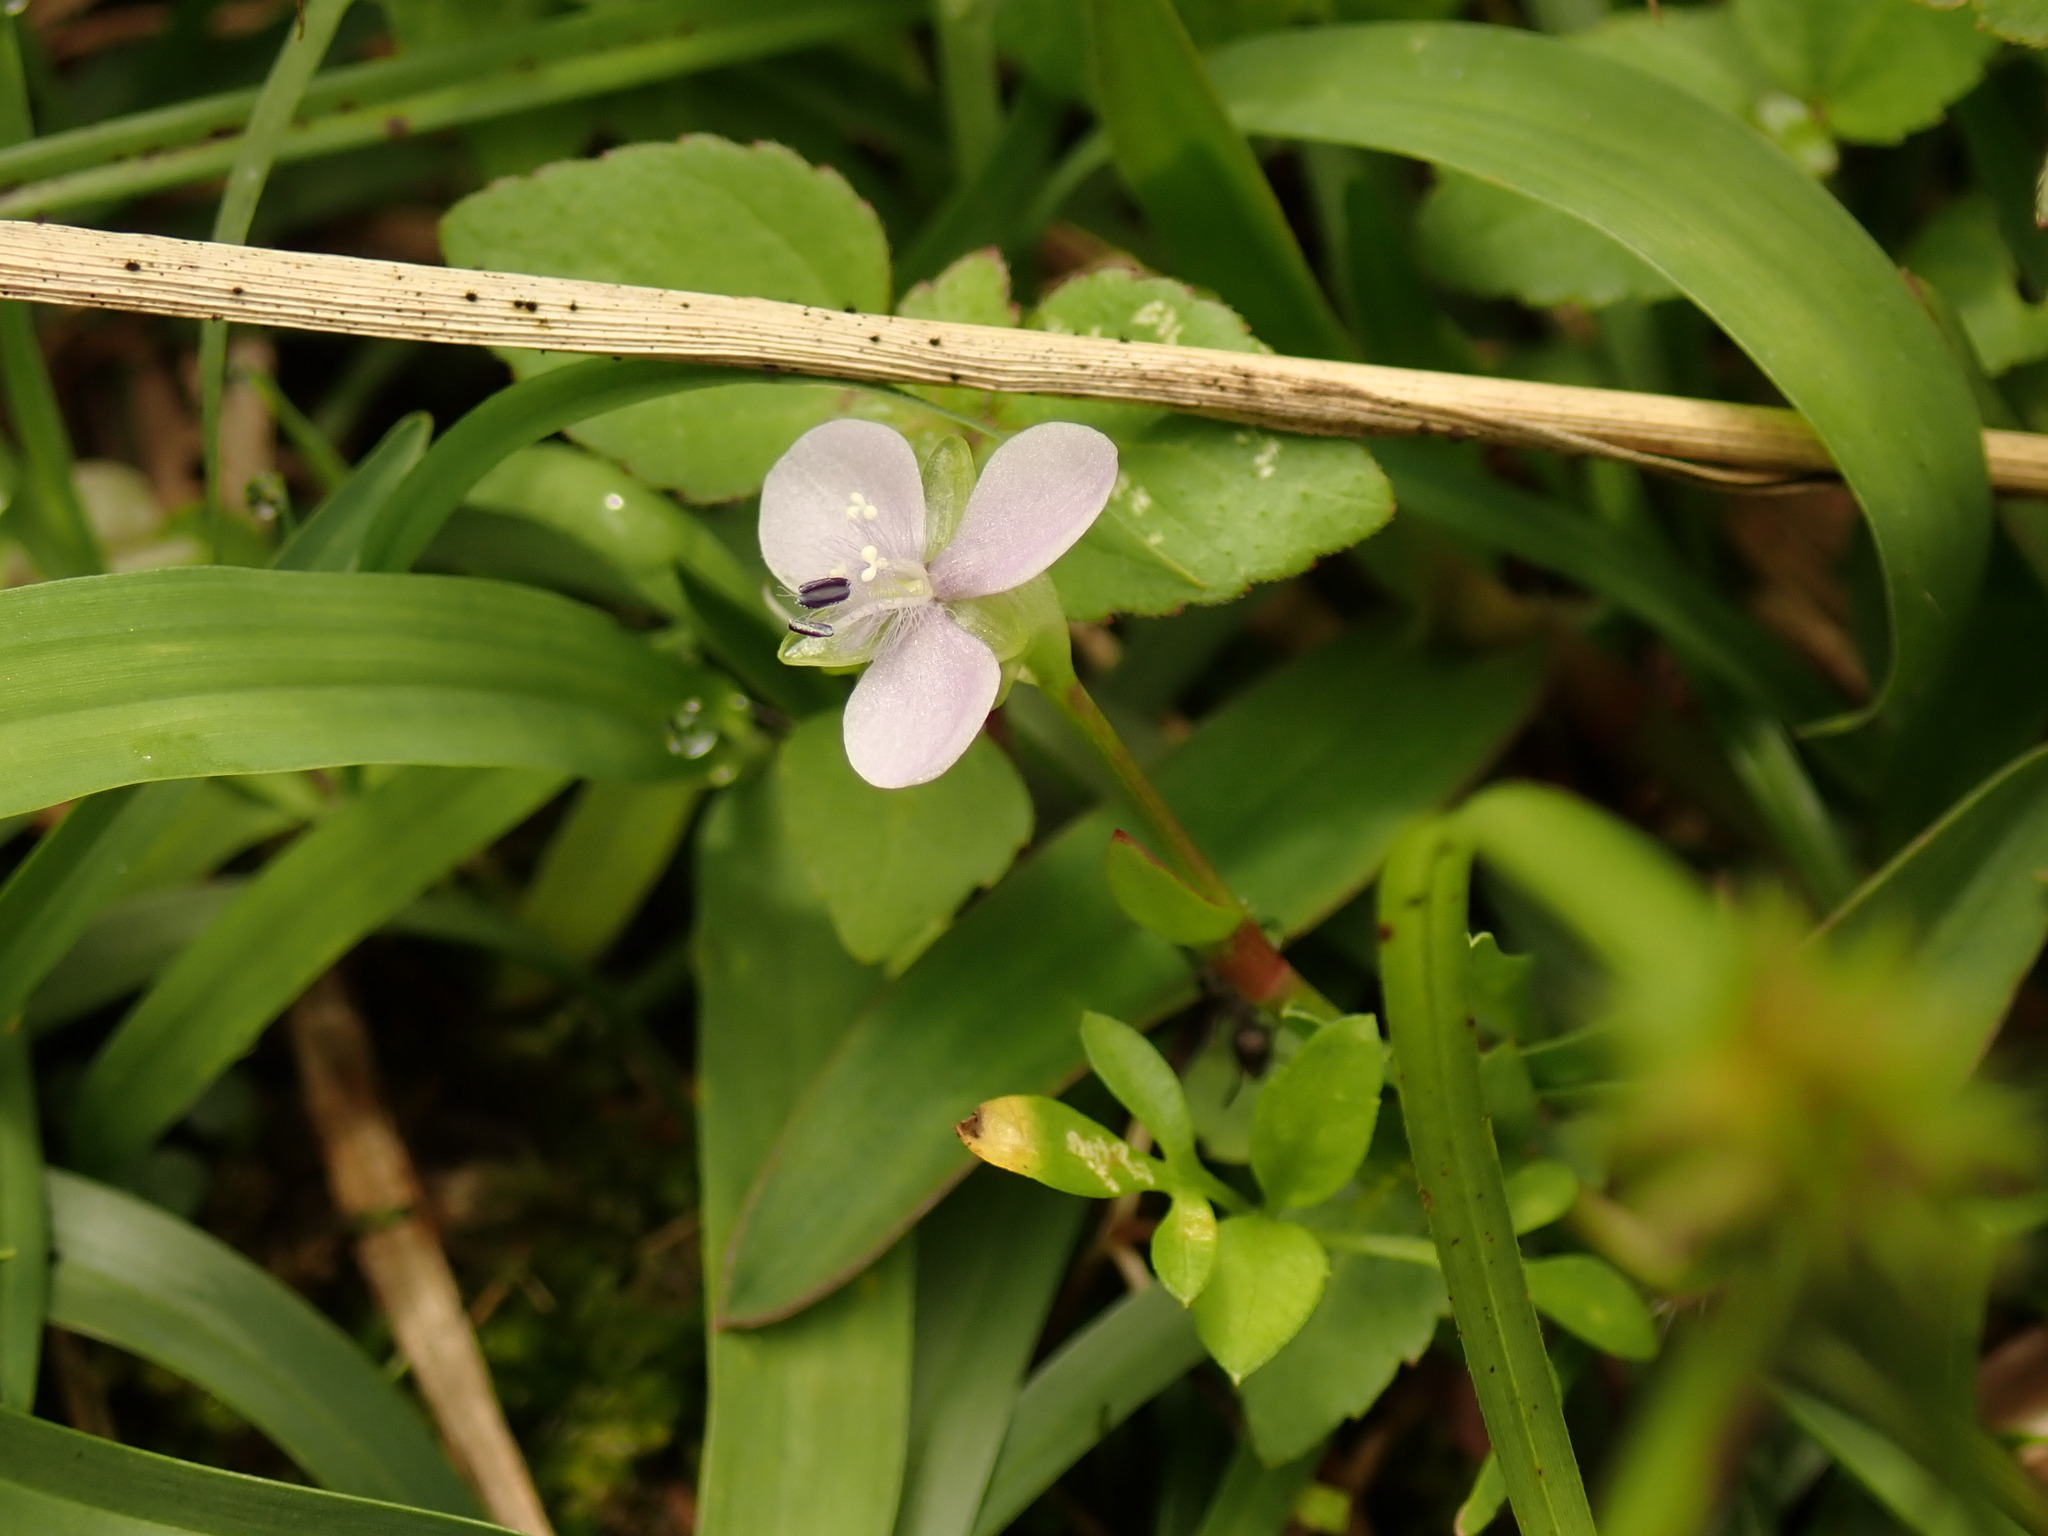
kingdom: Plantae
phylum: Tracheophyta
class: Liliopsida
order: Commelinales
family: Commelinaceae
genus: Murdannia
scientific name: Murdannia loriformis
